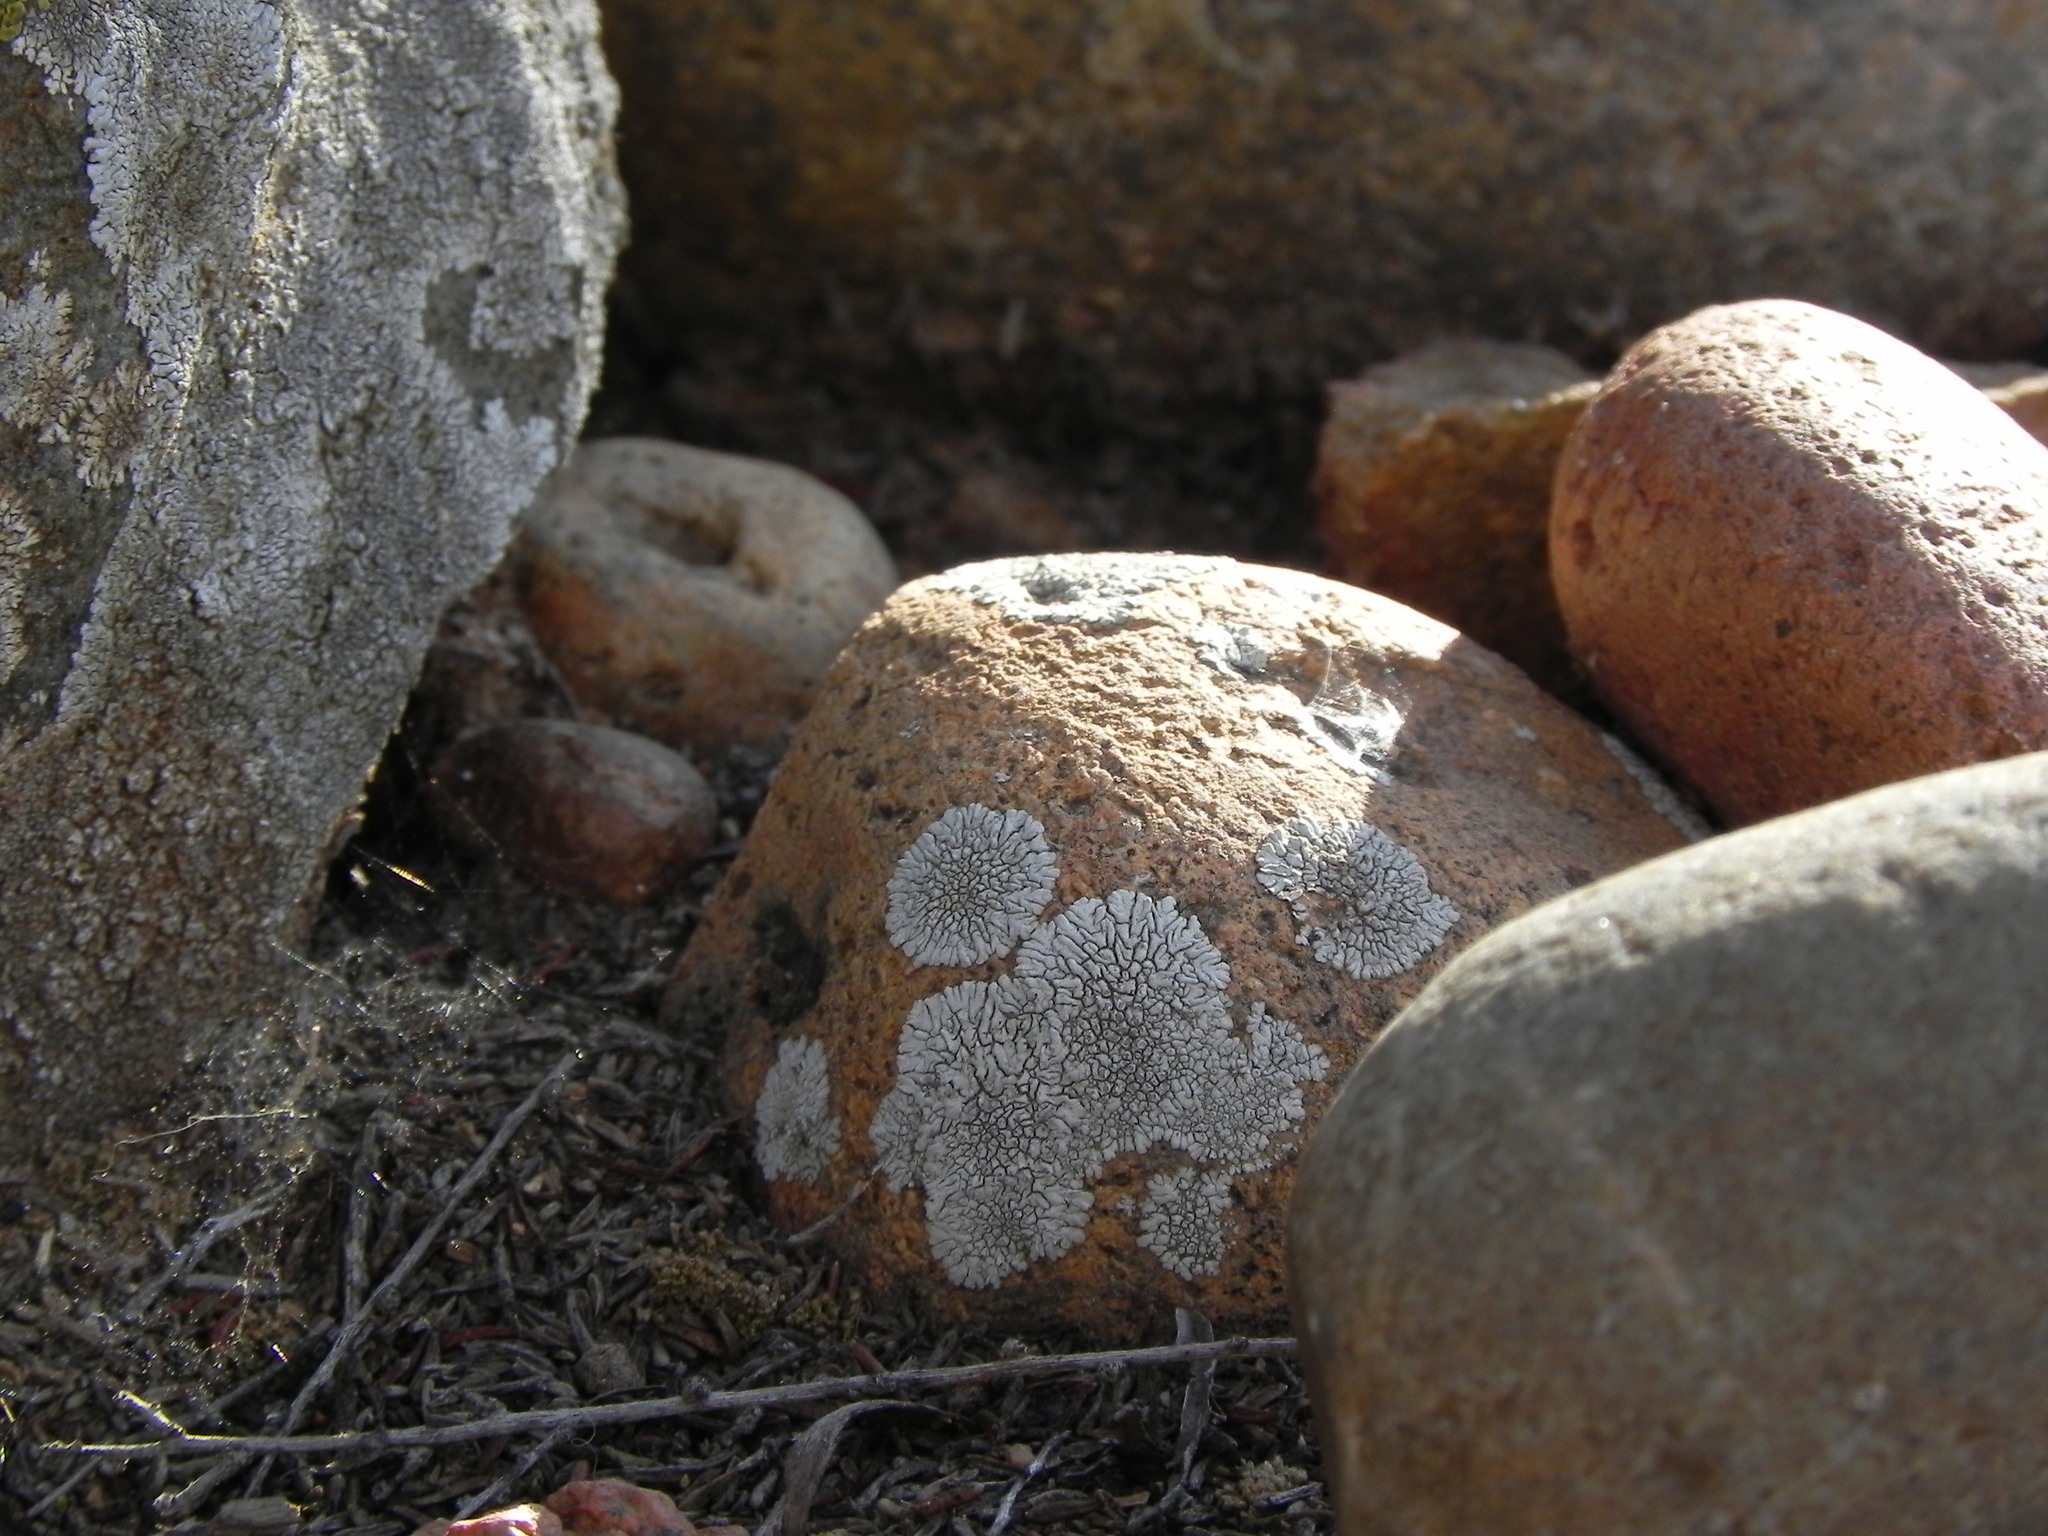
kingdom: Fungi
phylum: Ascomycota
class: Lecanoromycetes
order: Caliciales
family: Caliciaceae
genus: Dimelaena
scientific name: Dimelaena radiata
